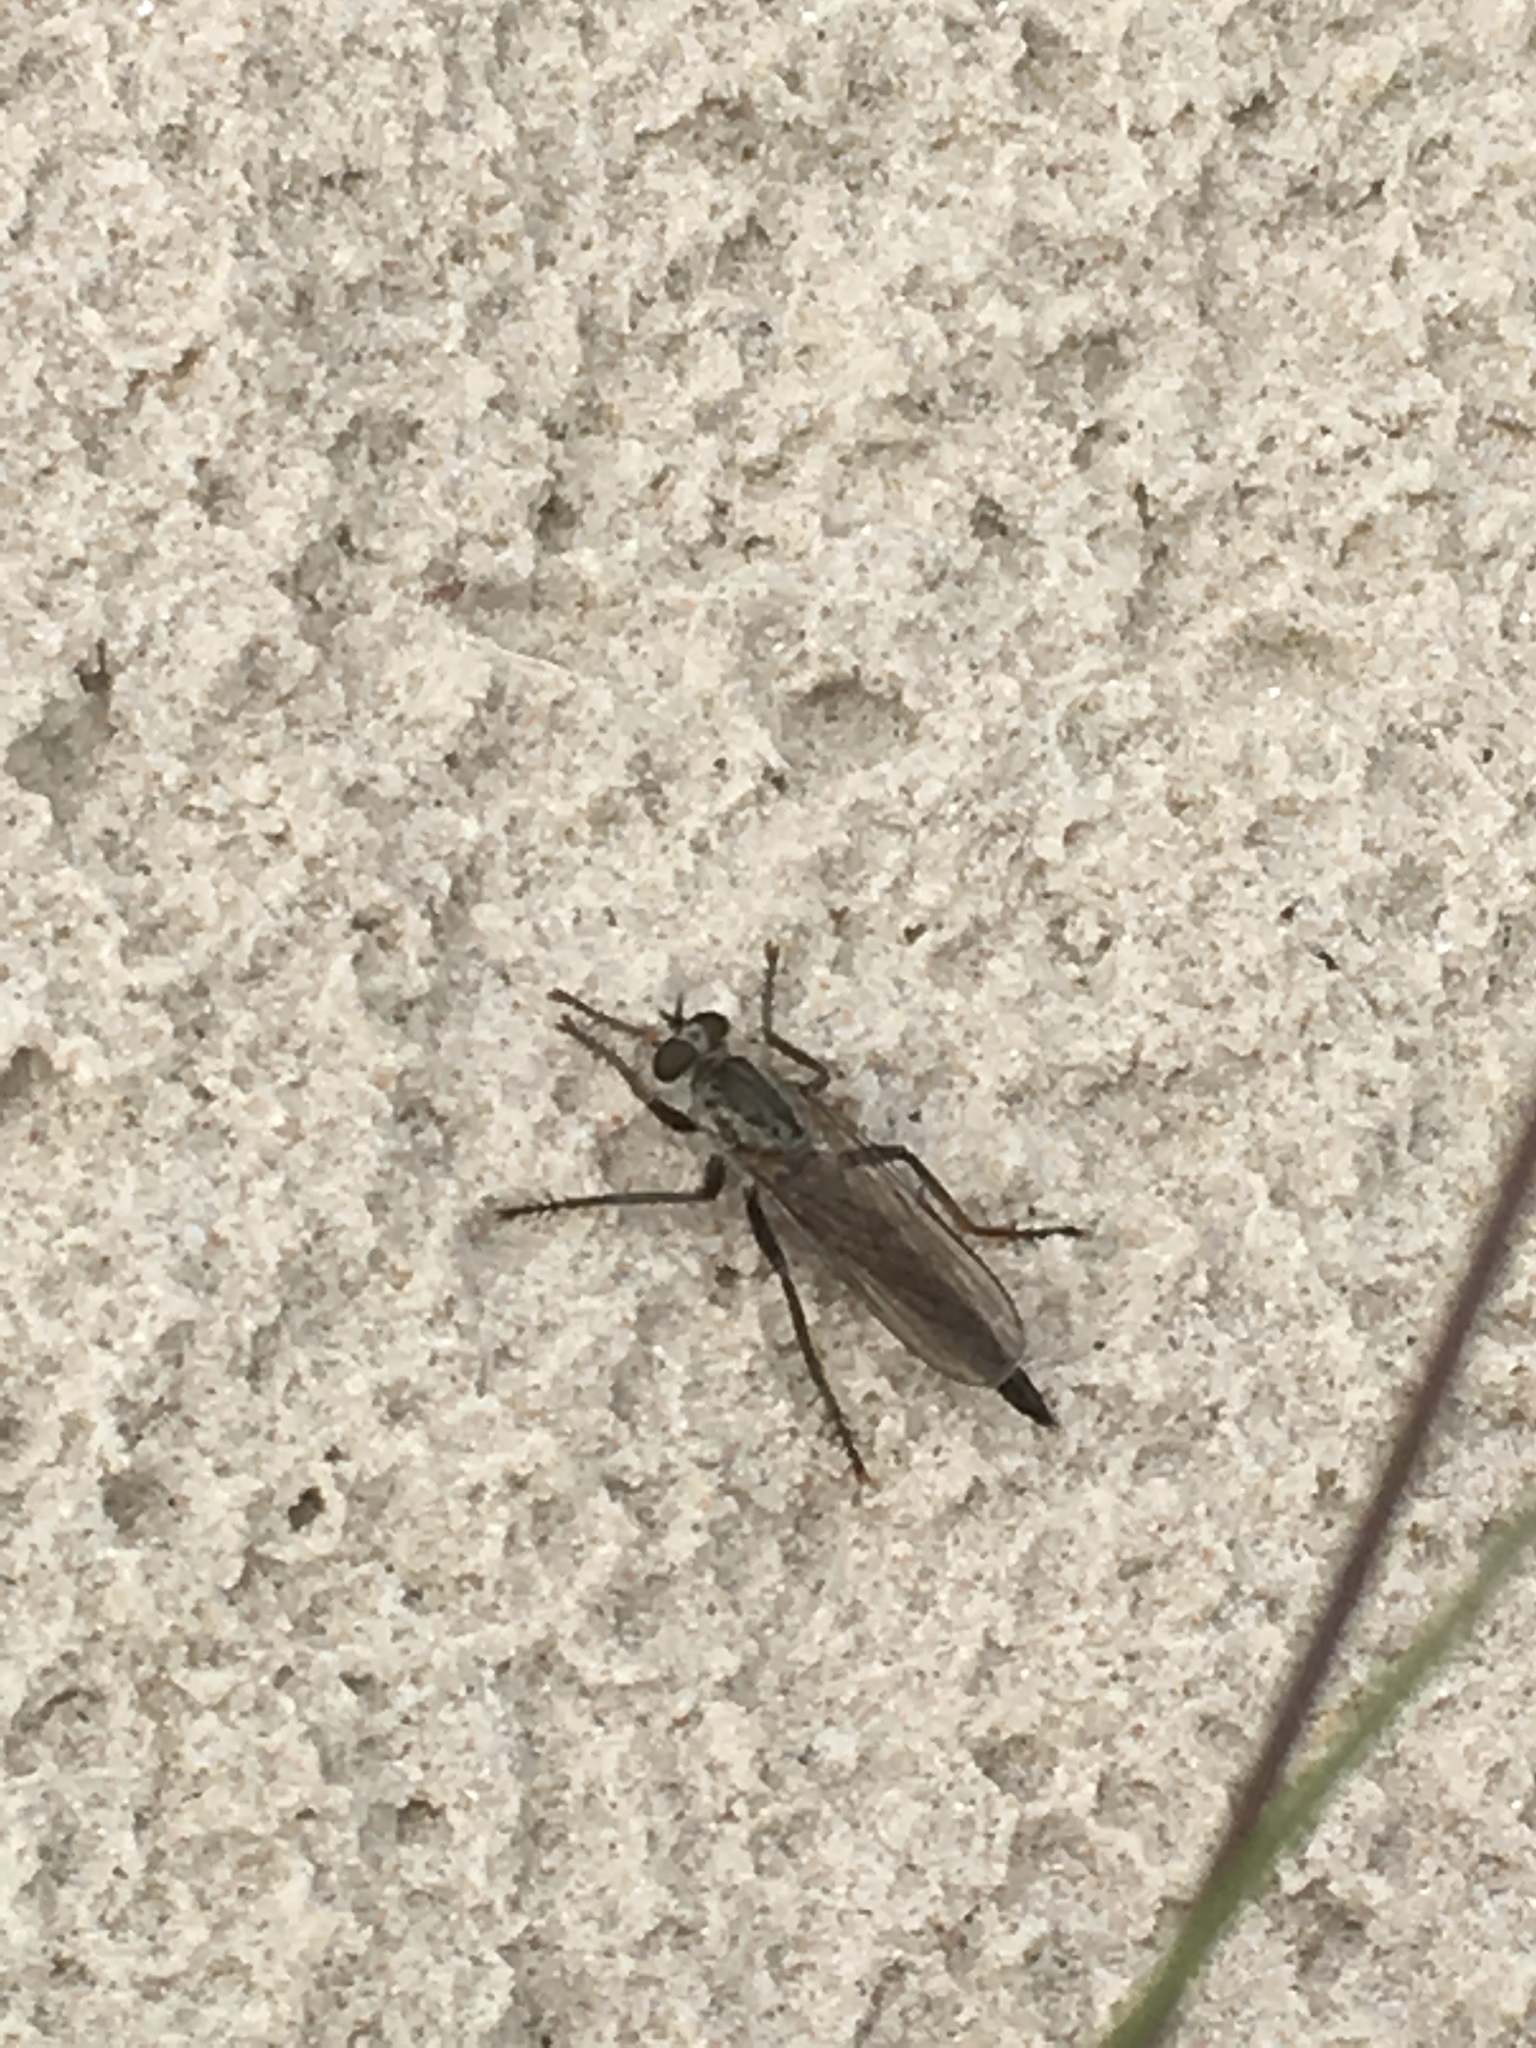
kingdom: Animalia
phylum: Arthropoda
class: Insecta
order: Diptera
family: Asilidae
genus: Philonicus
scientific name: Philonicus albiceps
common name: Dune robberfly
